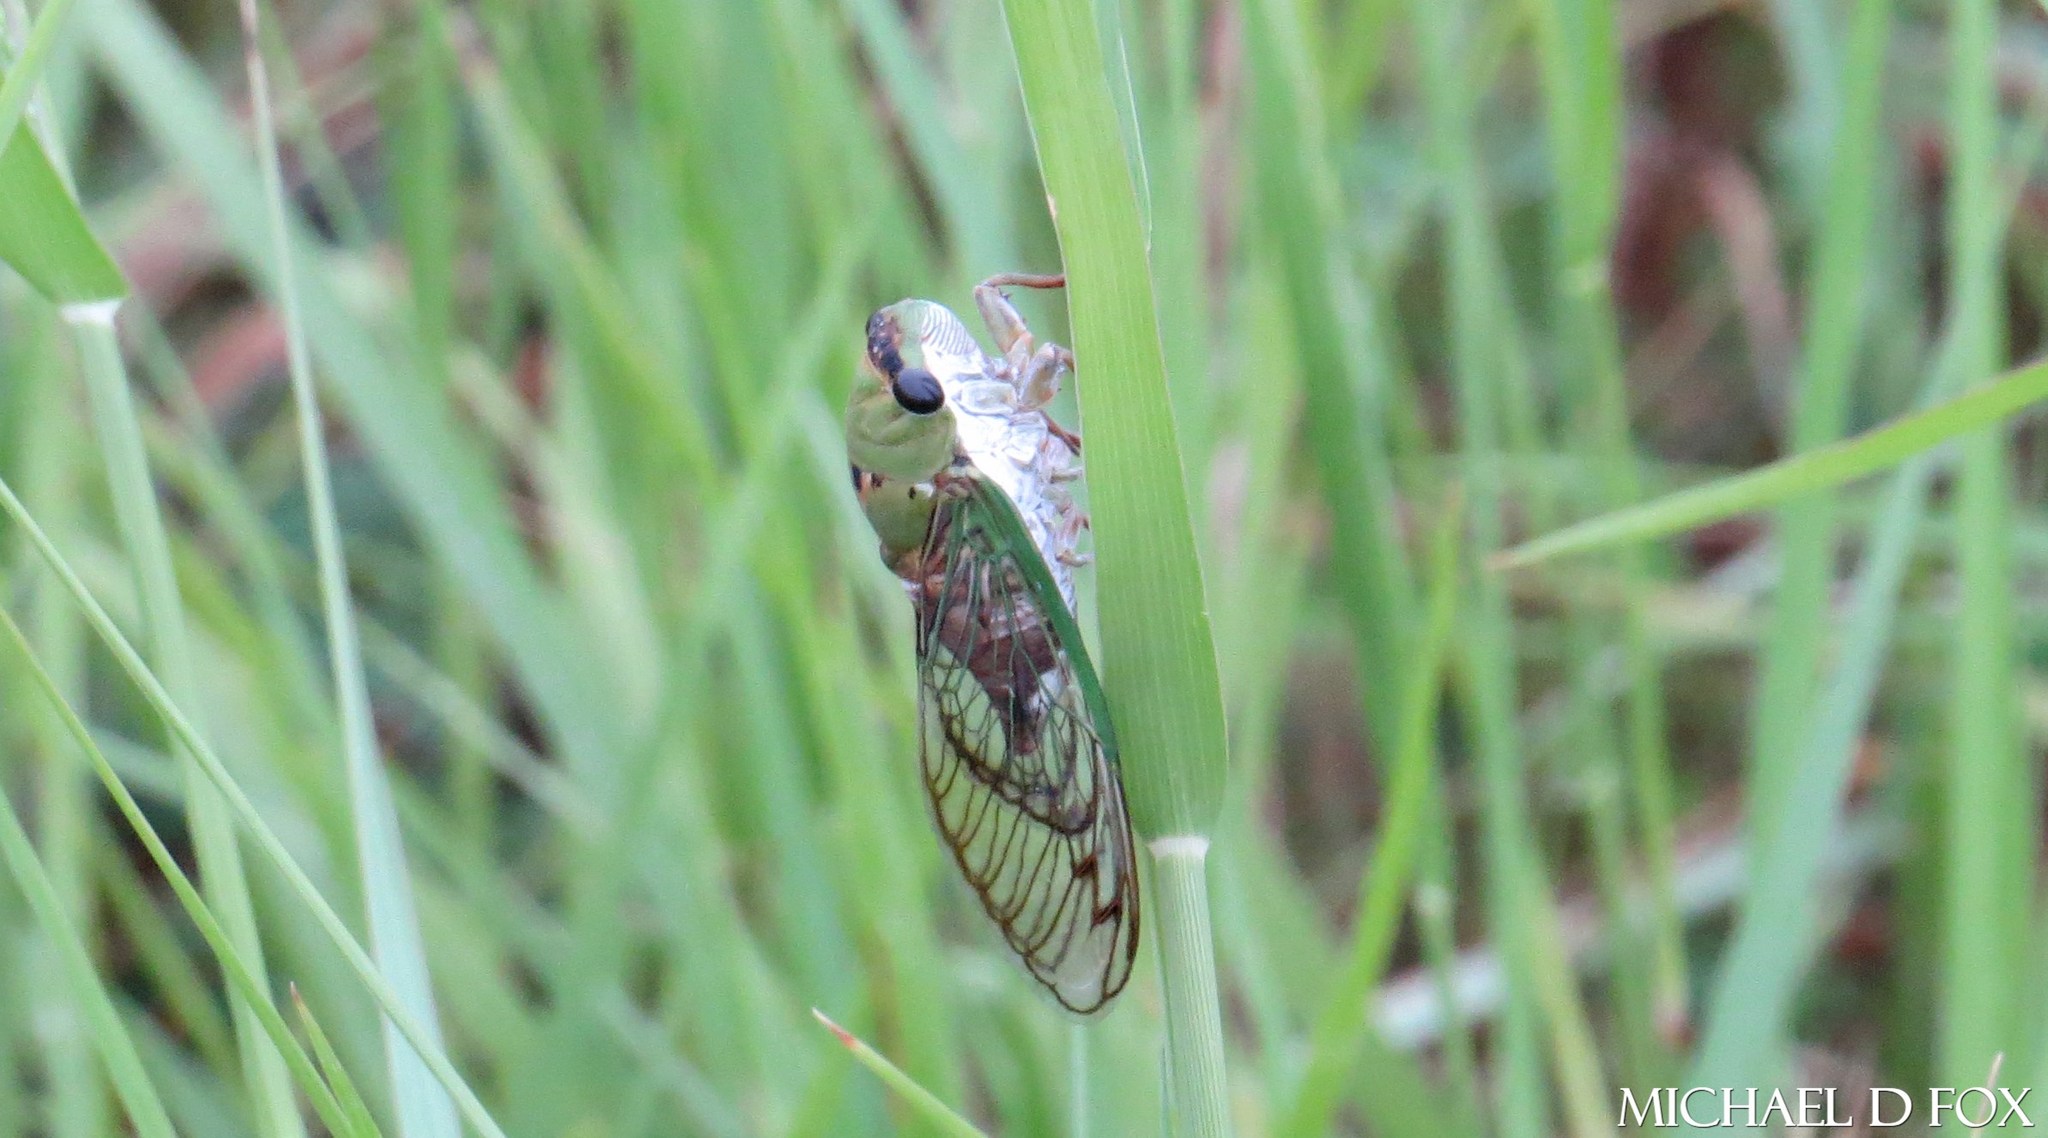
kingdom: Animalia
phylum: Arthropoda
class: Insecta
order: Hemiptera
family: Cicadidae
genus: Neotibicen
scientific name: Neotibicen superbus
